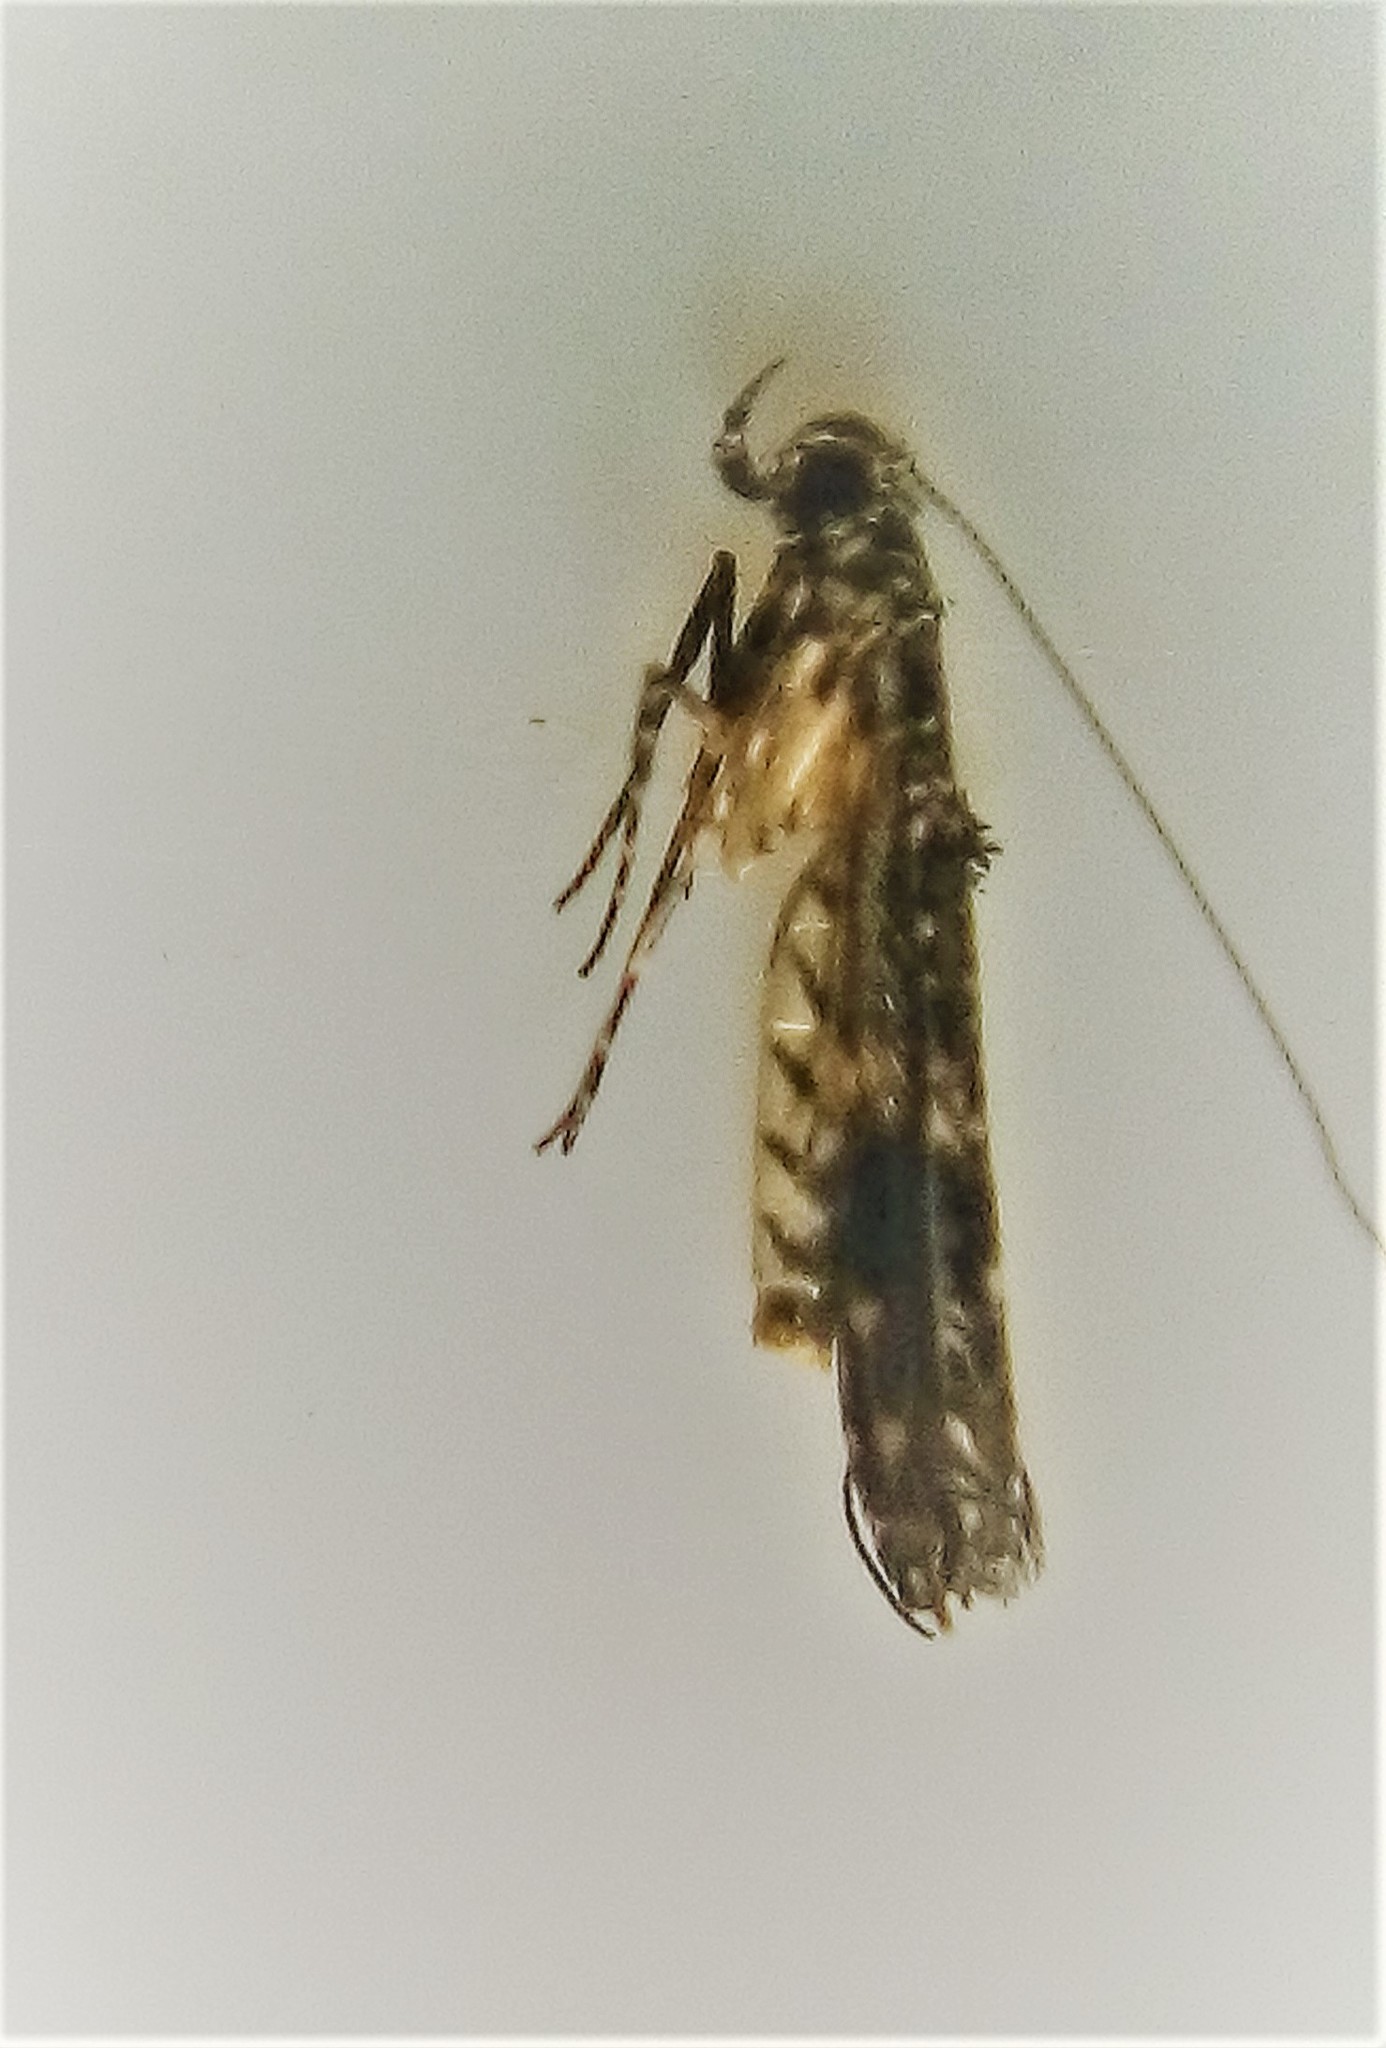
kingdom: Animalia
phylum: Arthropoda
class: Insecta
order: Lepidoptera
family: Gracillariidae
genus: Conopomorpha
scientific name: Conopomorpha cyanospila
